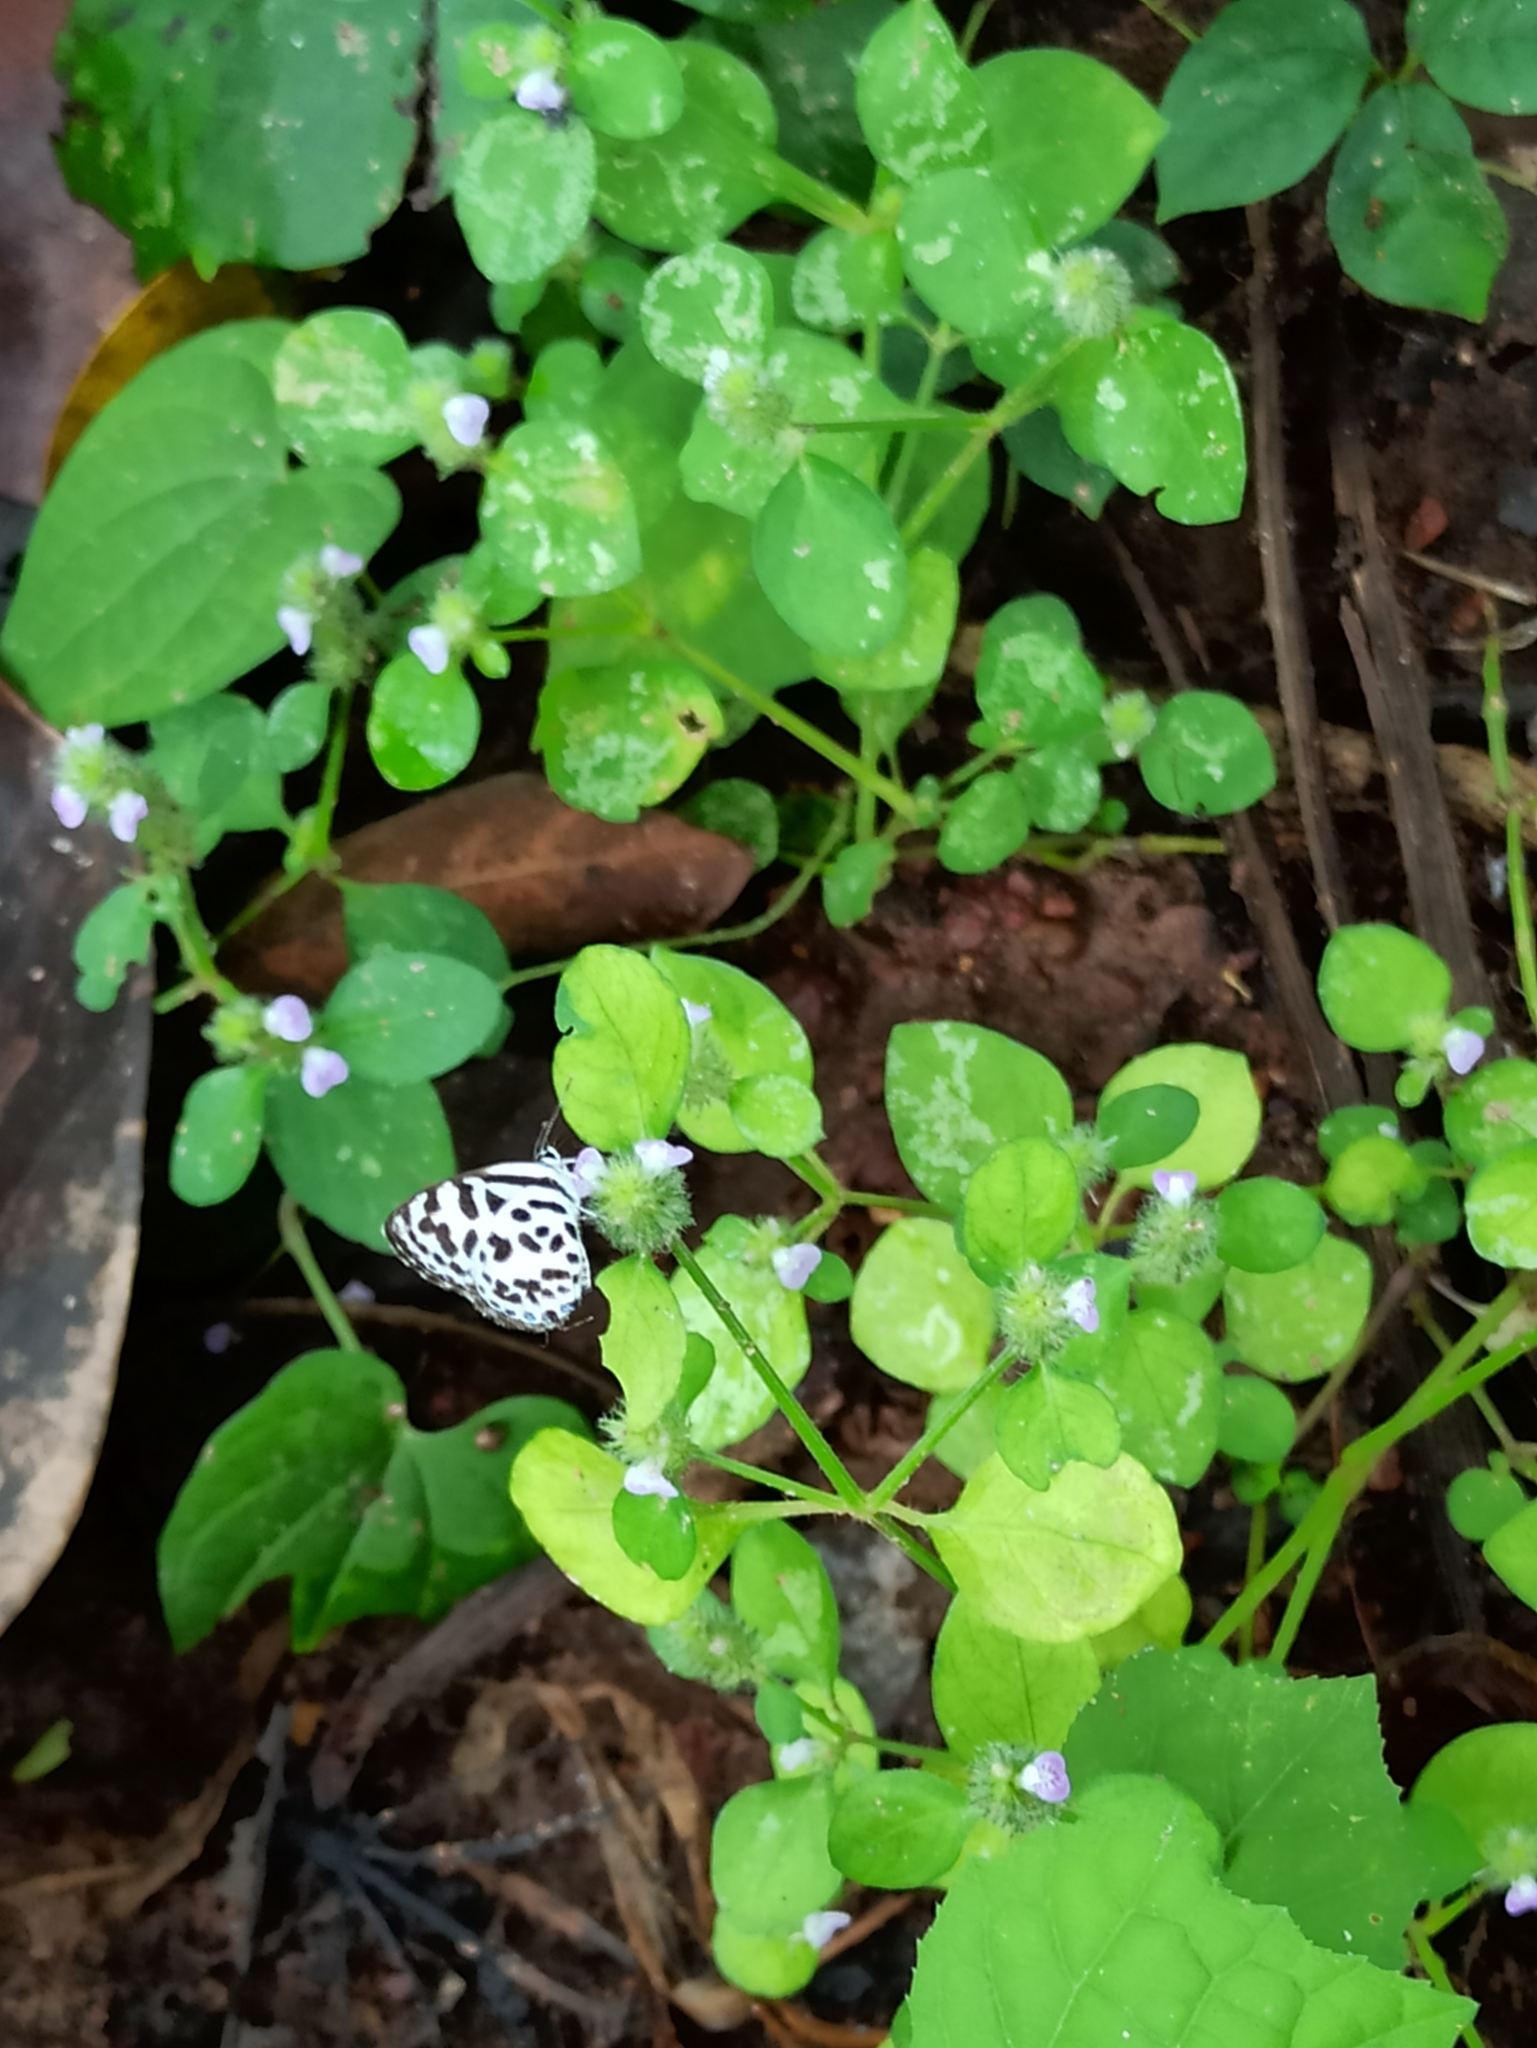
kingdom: Animalia
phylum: Arthropoda
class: Insecta
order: Lepidoptera
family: Lycaenidae
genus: Castalius
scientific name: Castalius rosimon
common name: Common pierrot
